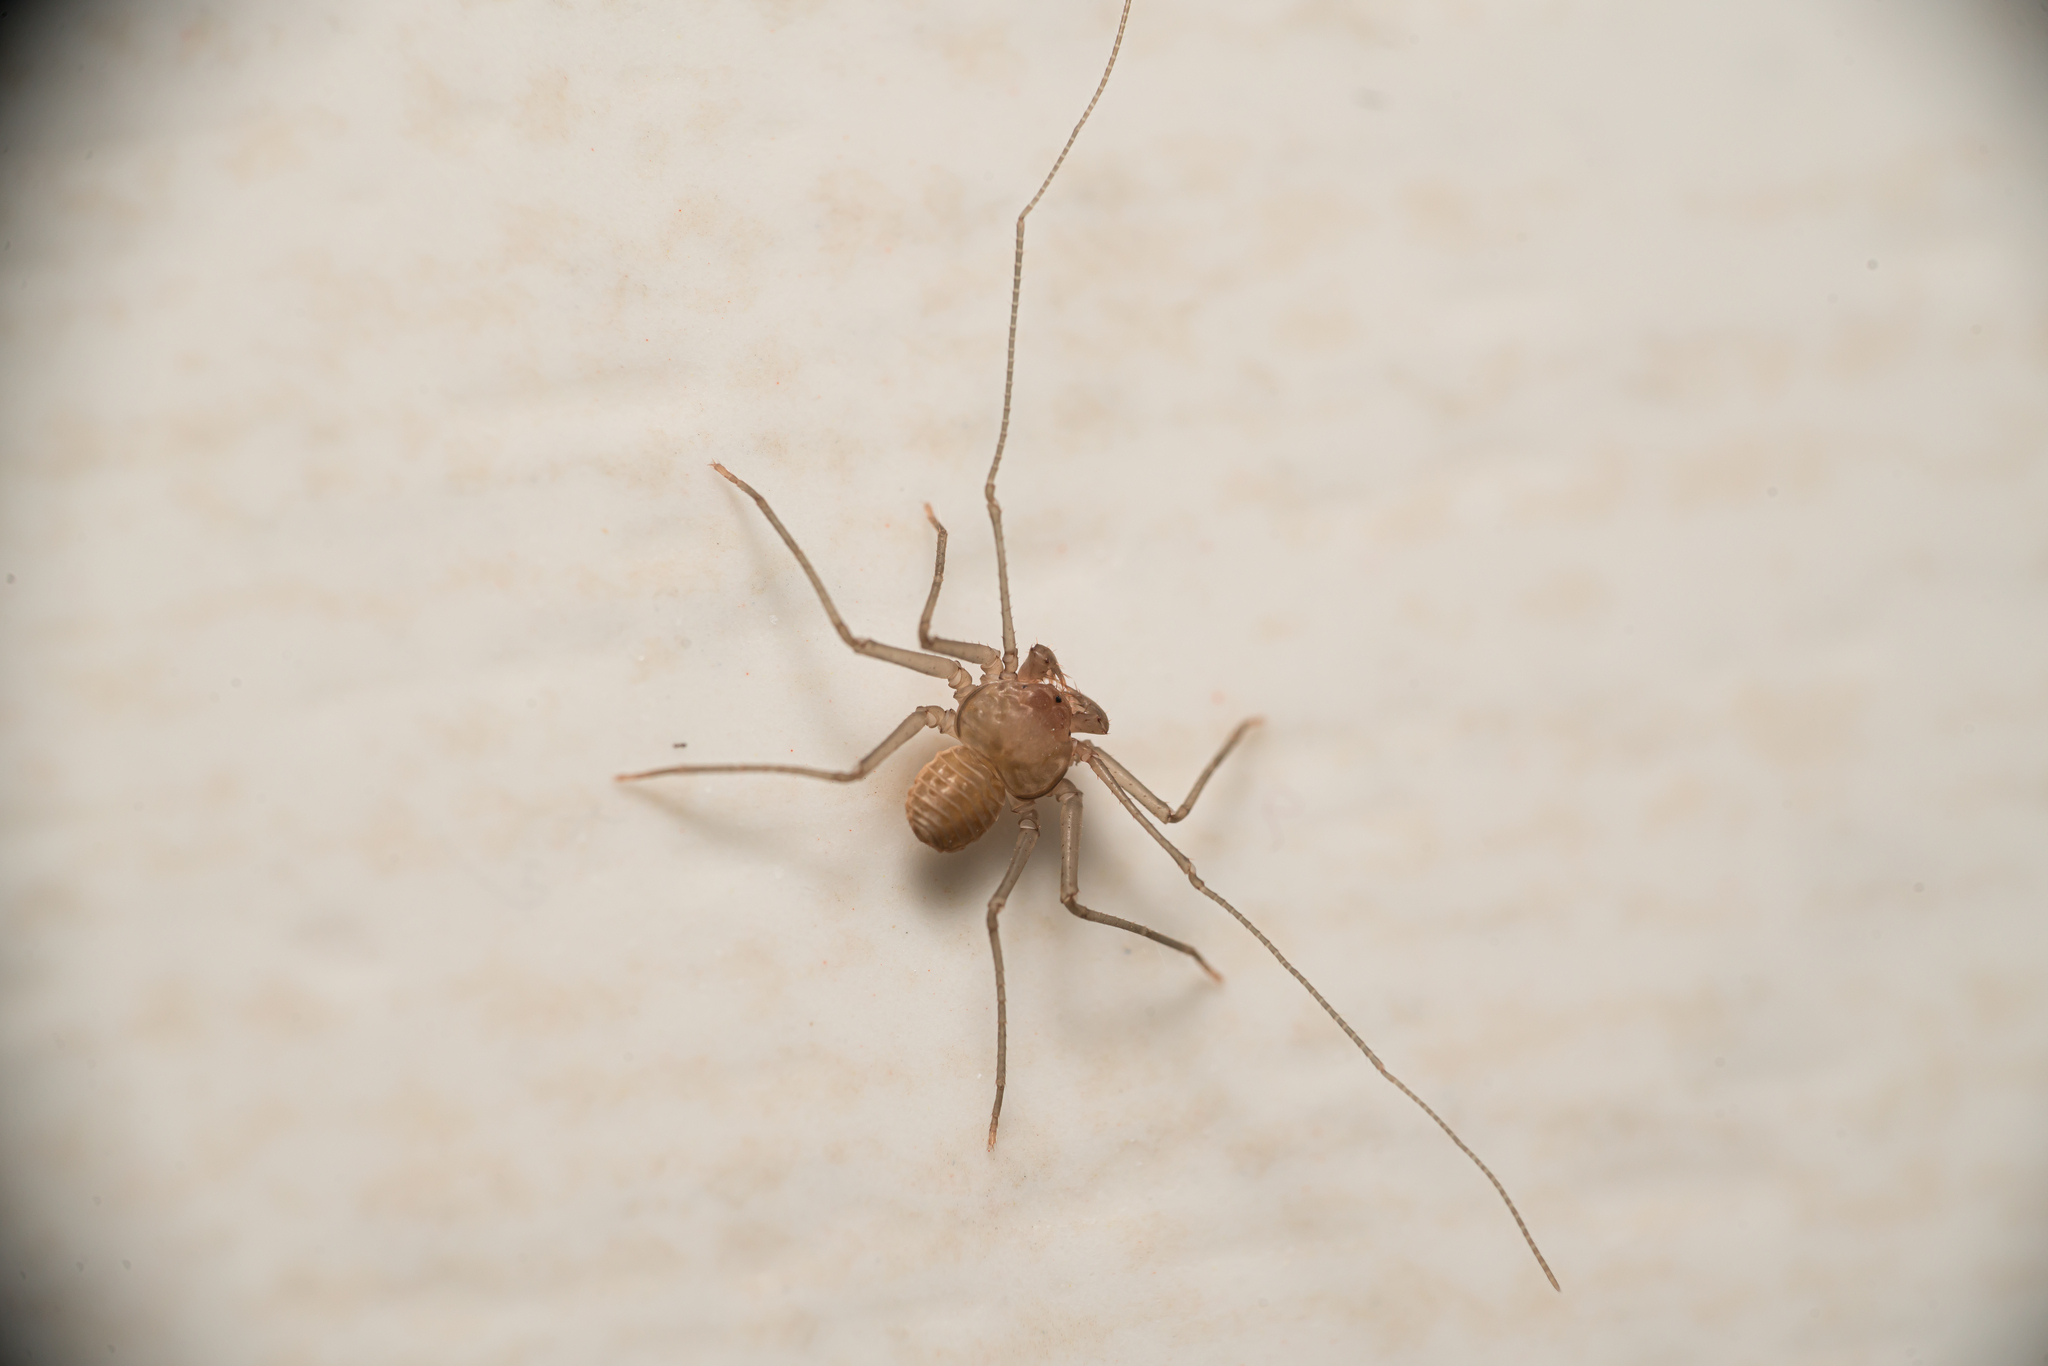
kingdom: Animalia
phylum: Arthropoda
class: Arachnida
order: Amblypygi
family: Charinidae
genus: Sarax
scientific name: Sarax ioanniticus
